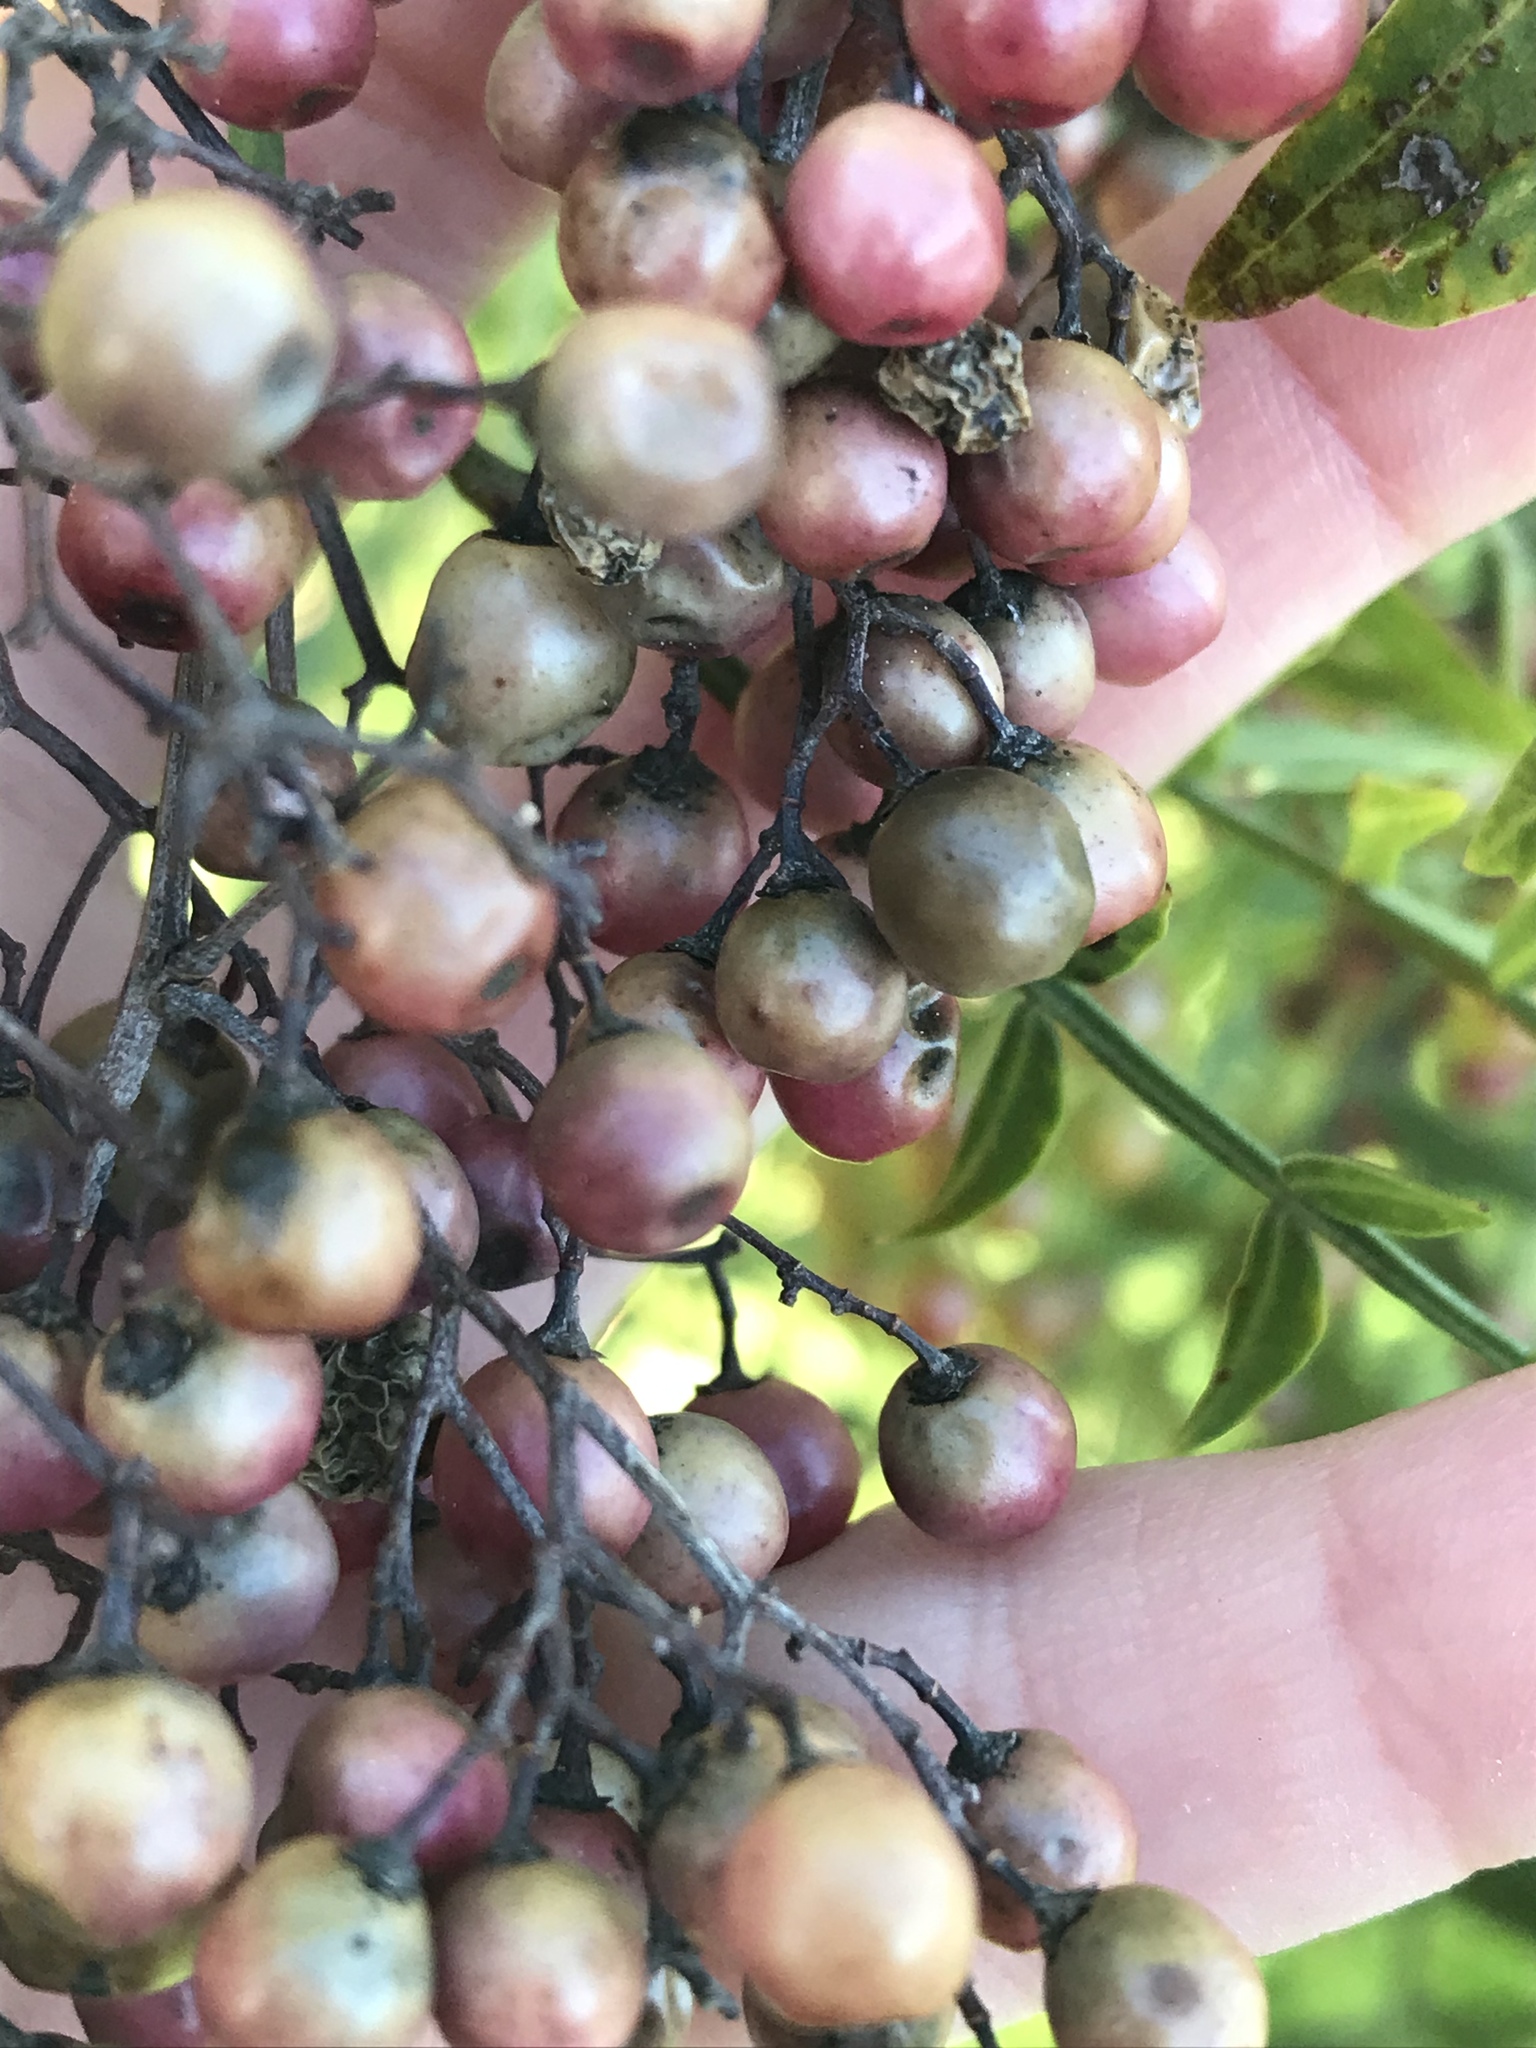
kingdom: Plantae
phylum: Tracheophyta
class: Magnoliopsida
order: Sapindales
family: Anacardiaceae
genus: Schinus
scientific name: Schinus molle
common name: Peruvian peppertree
